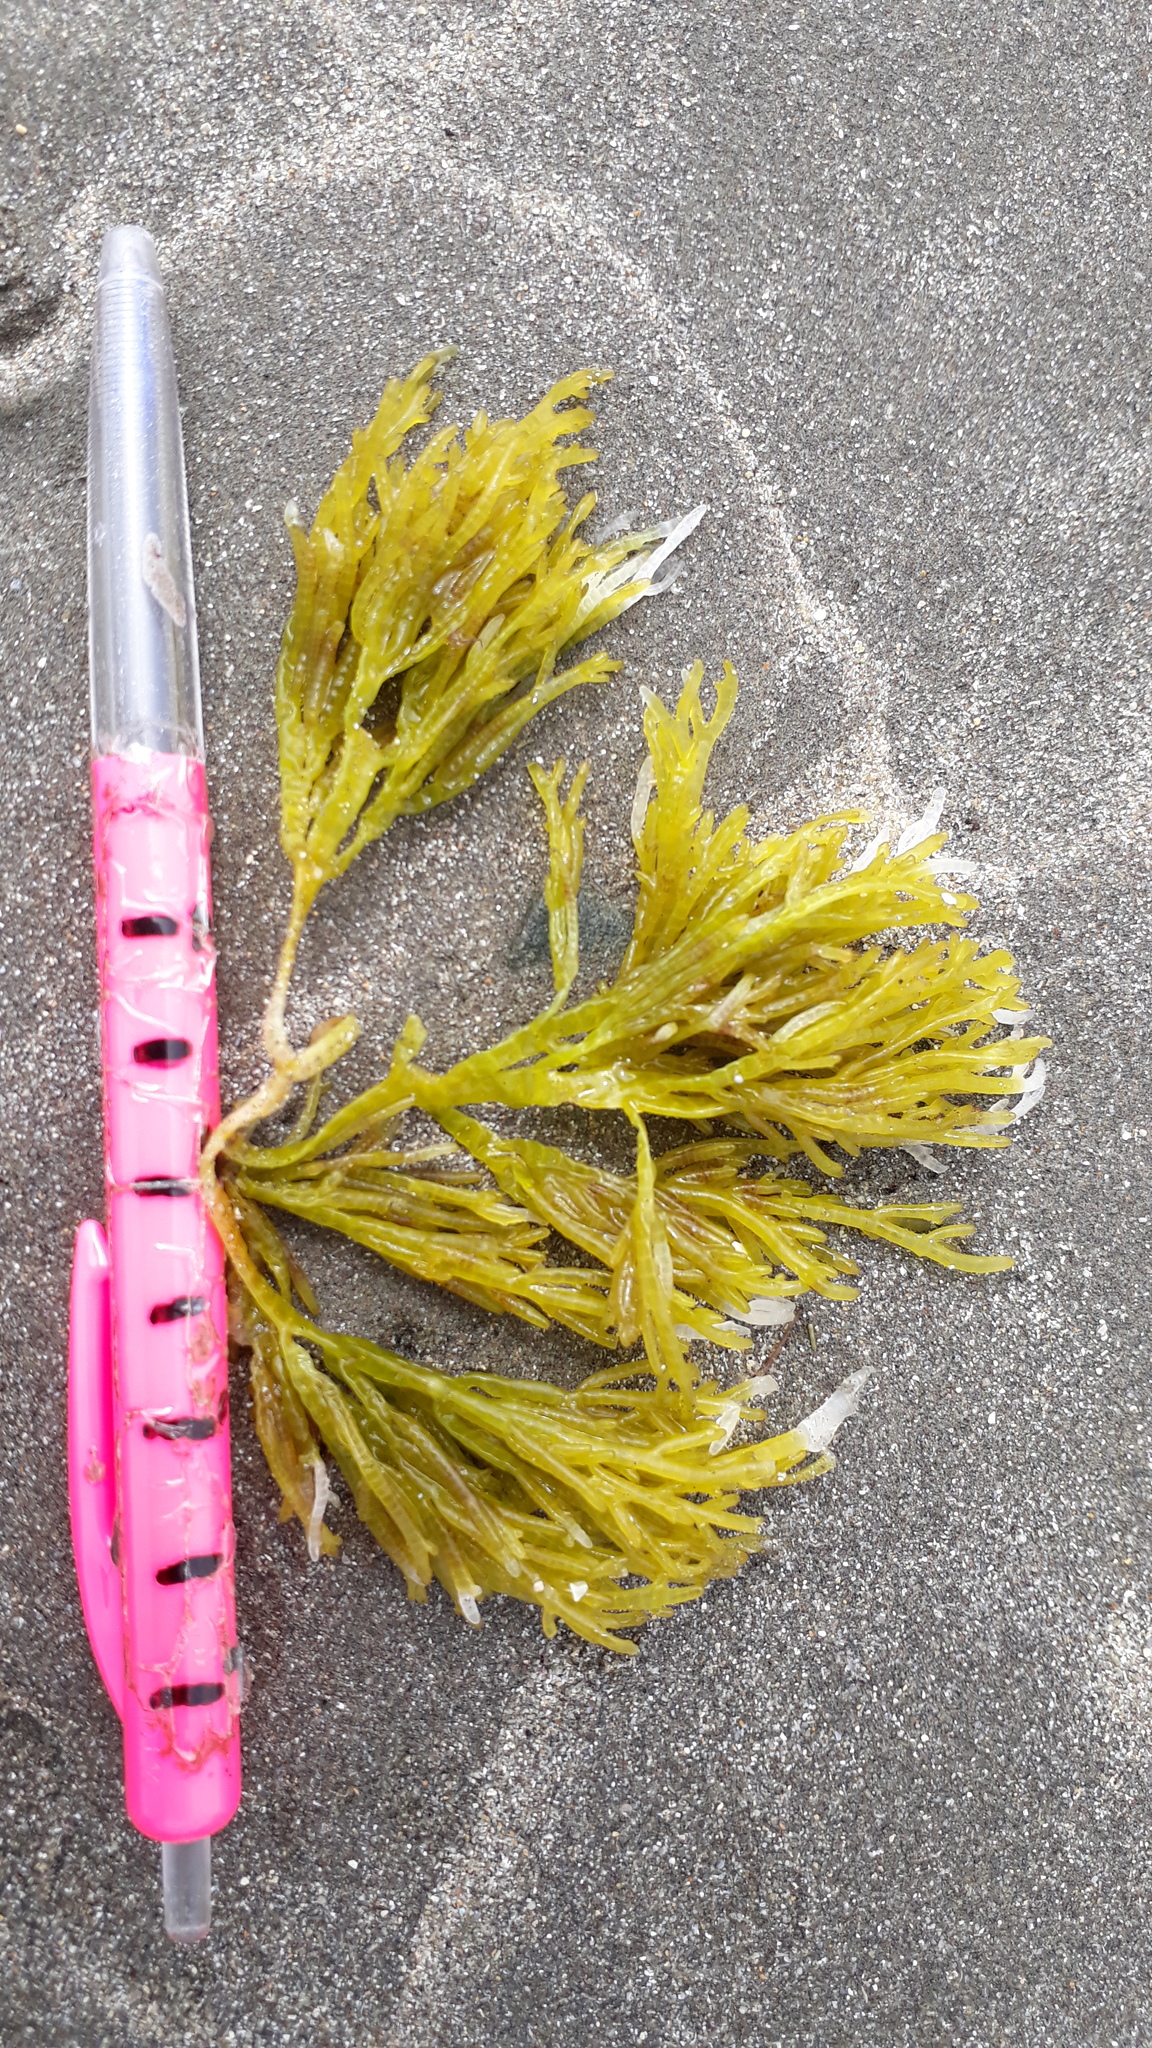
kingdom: Plantae
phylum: Rhodophyta
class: Florideophyceae
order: Rhodymeniales
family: Champiaceae
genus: Champia
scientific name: Champia novae-zelandiae
